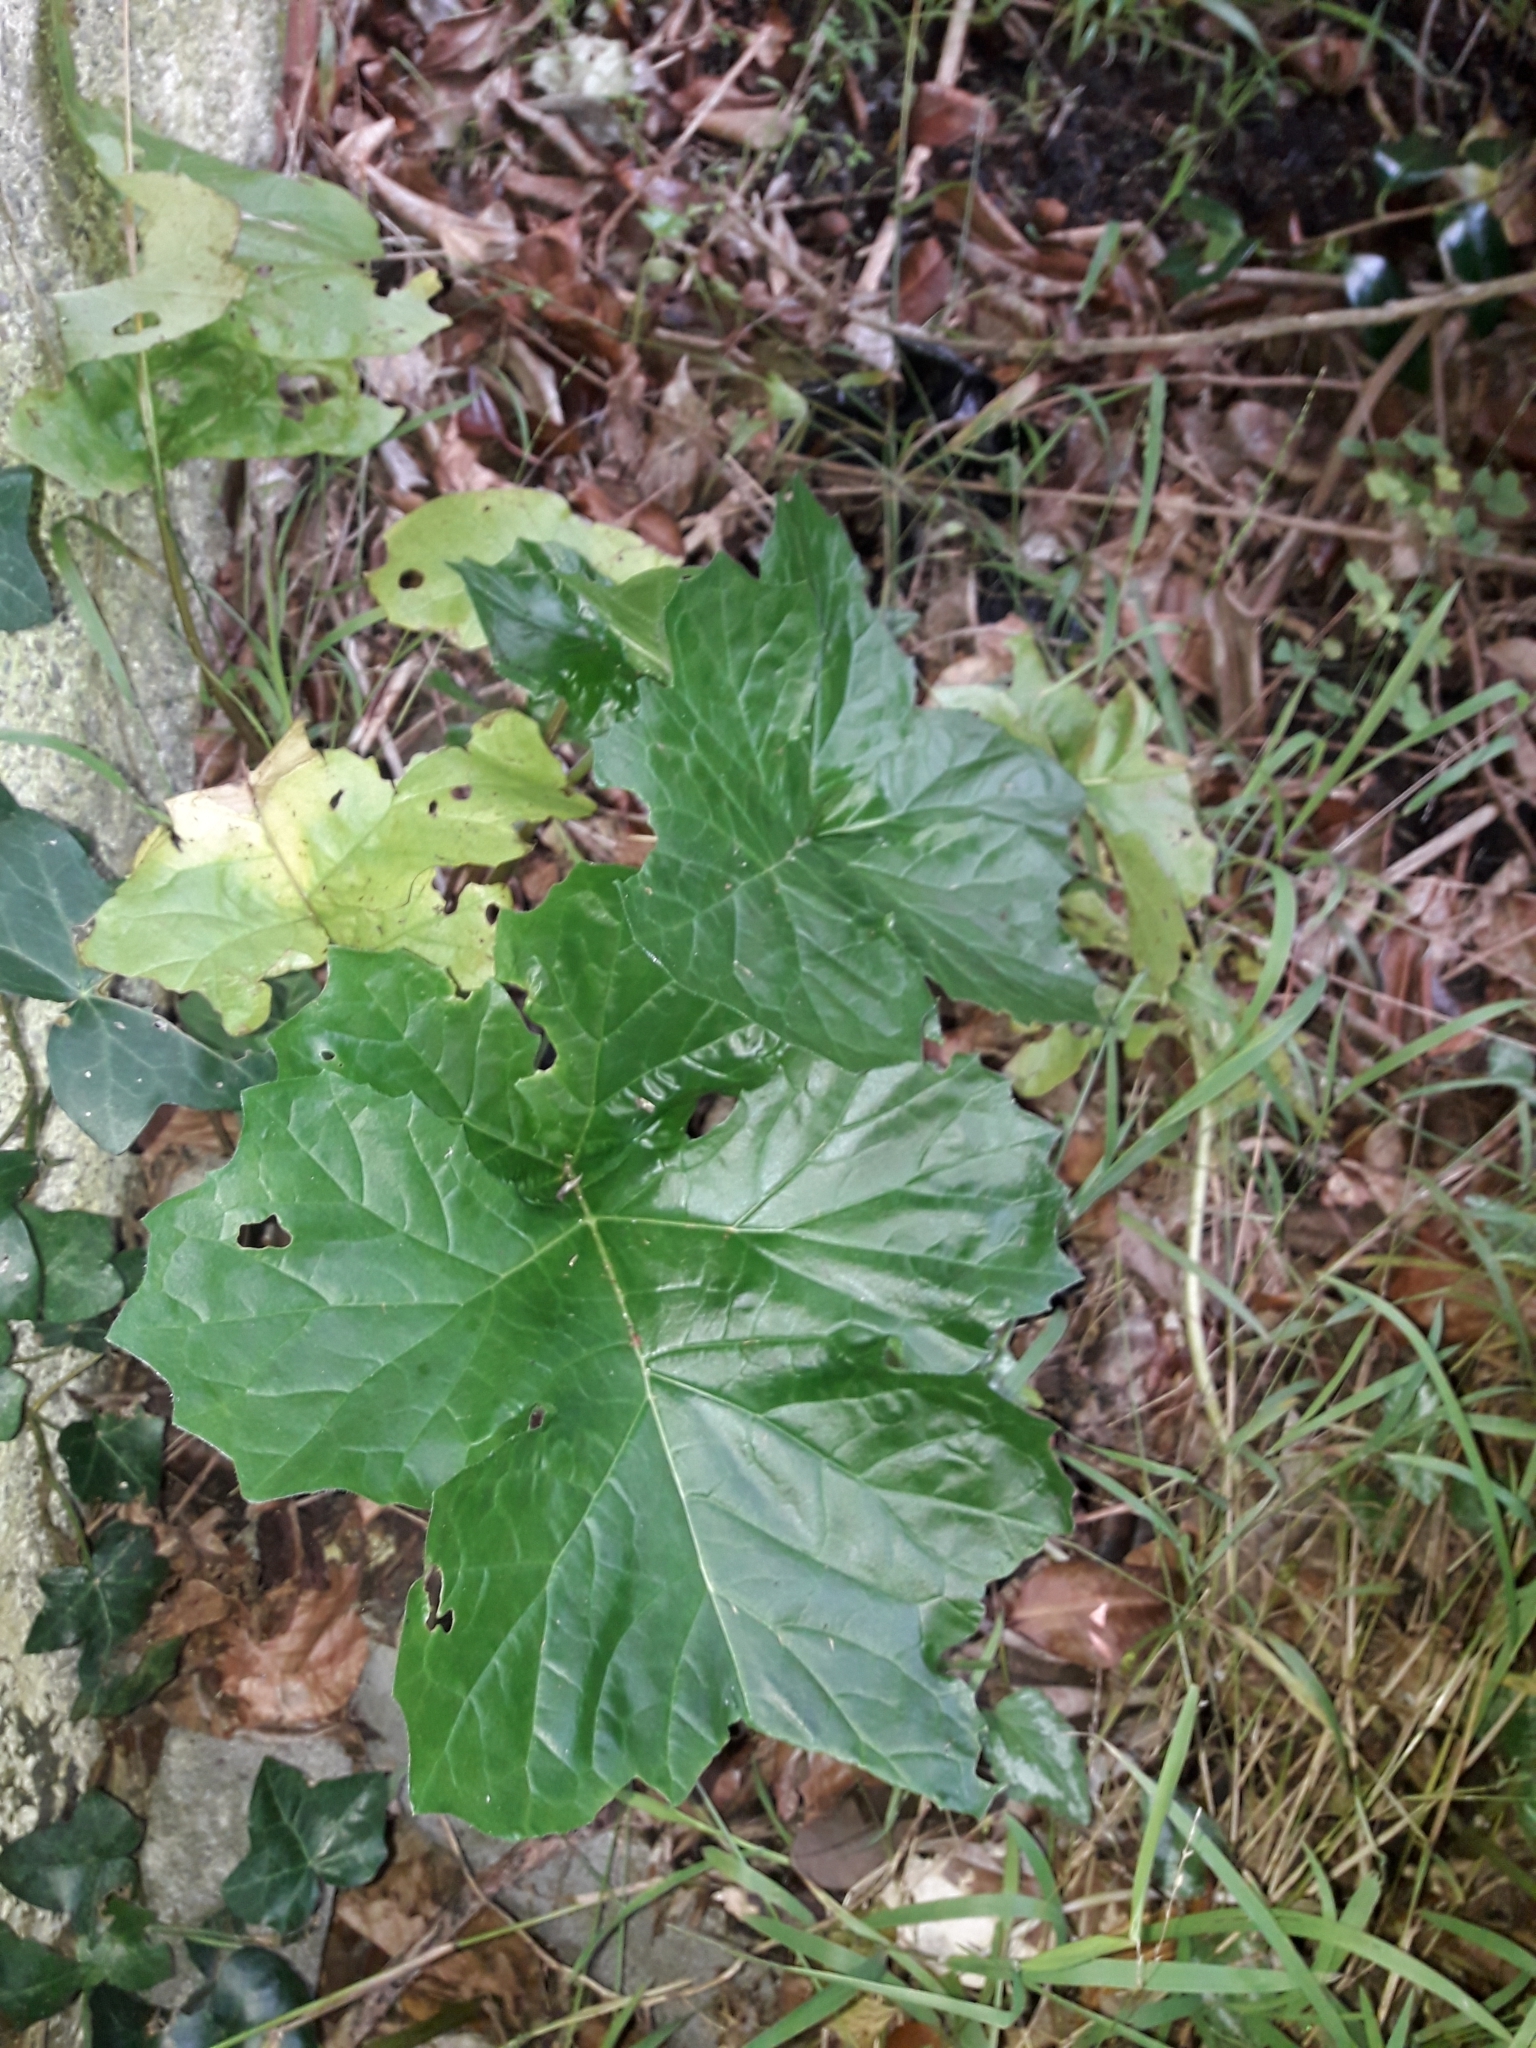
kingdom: Plantae
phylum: Tracheophyta
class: Magnoliopsida
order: Lamiales
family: Acanthaceae
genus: Acanthus
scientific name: Acanthus mollis
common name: Bear's-breech
